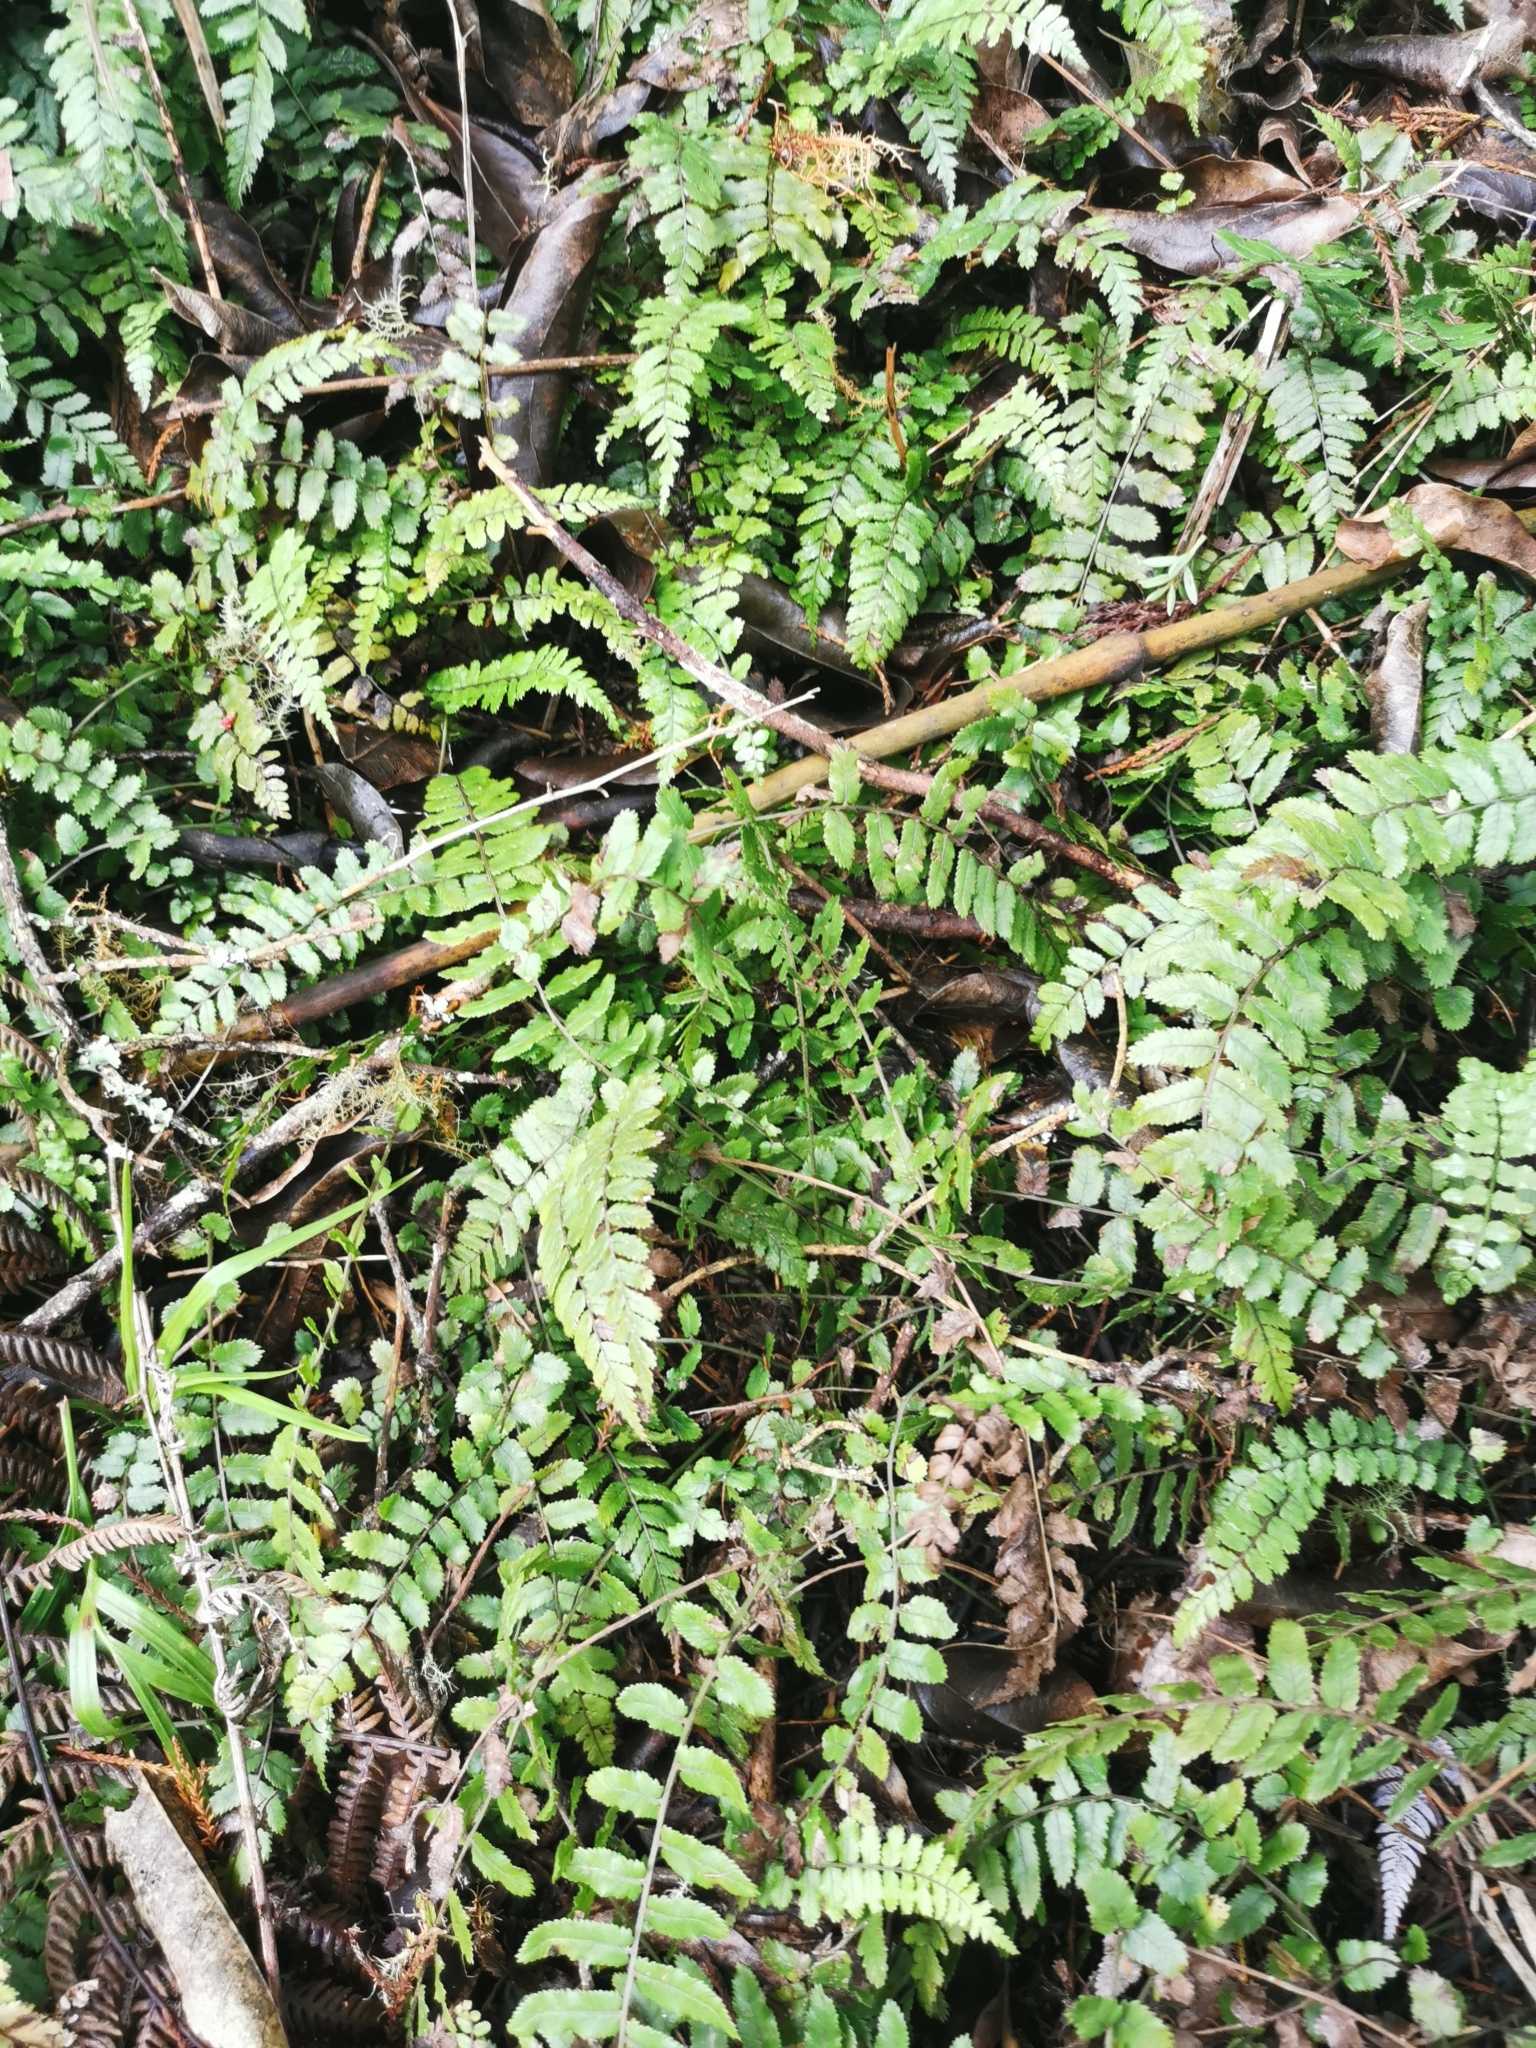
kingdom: Plantae
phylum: Tracheophyta
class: Polypodiopsida
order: Polypodiales
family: Blechnaceae
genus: Doodia
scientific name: Doodia australis
